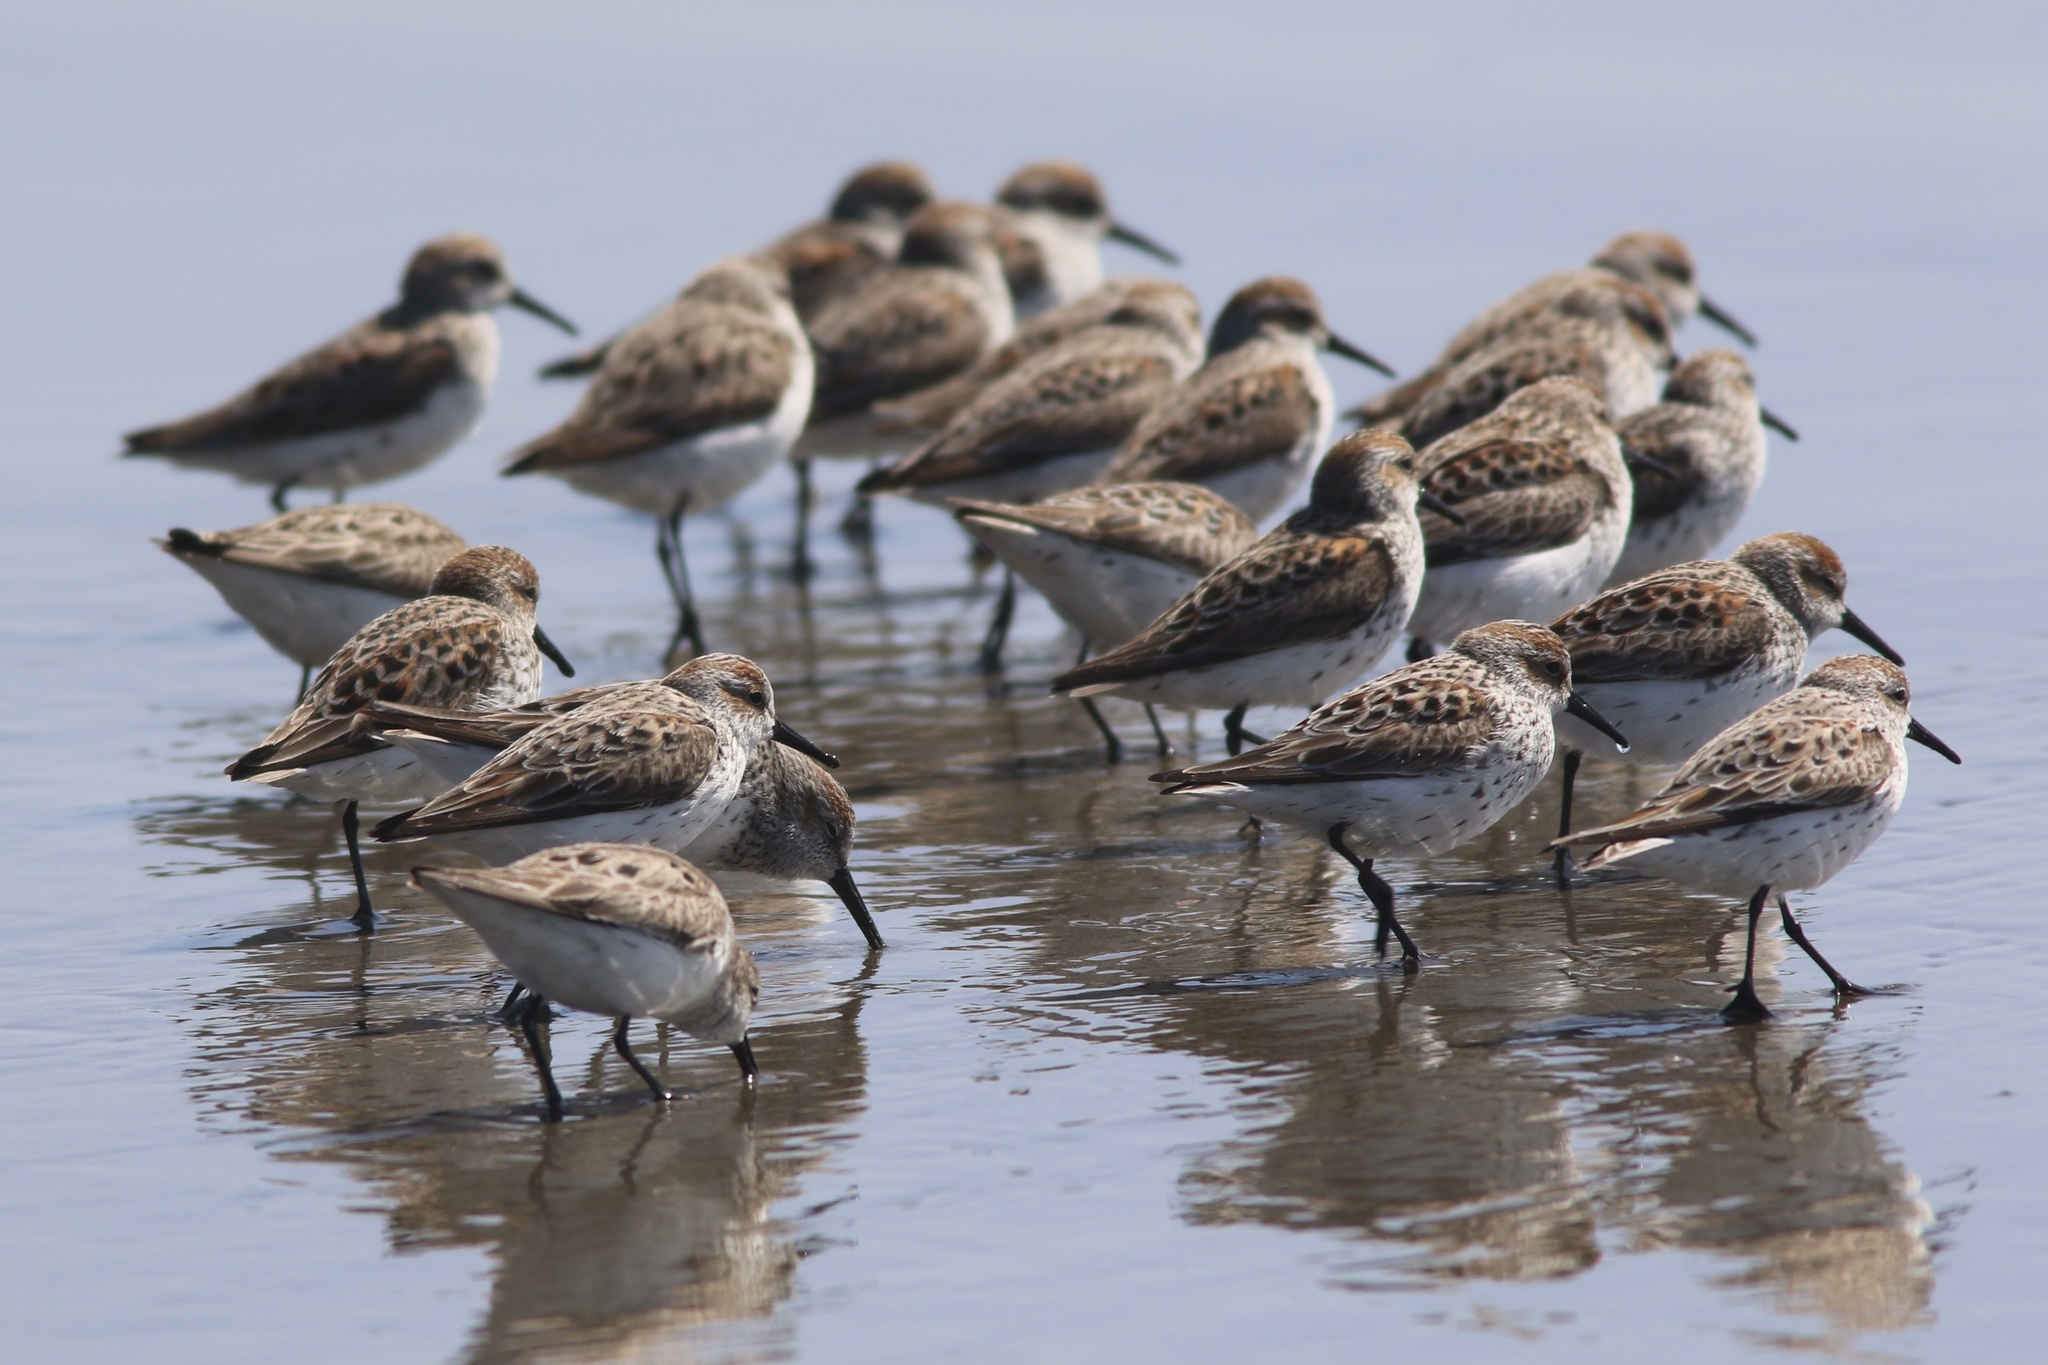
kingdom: Animalia
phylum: Chordata
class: Aves
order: Charadriiformes
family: Scolopacidae
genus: Calidris
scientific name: Calidris mauri
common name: Western sandpiper
